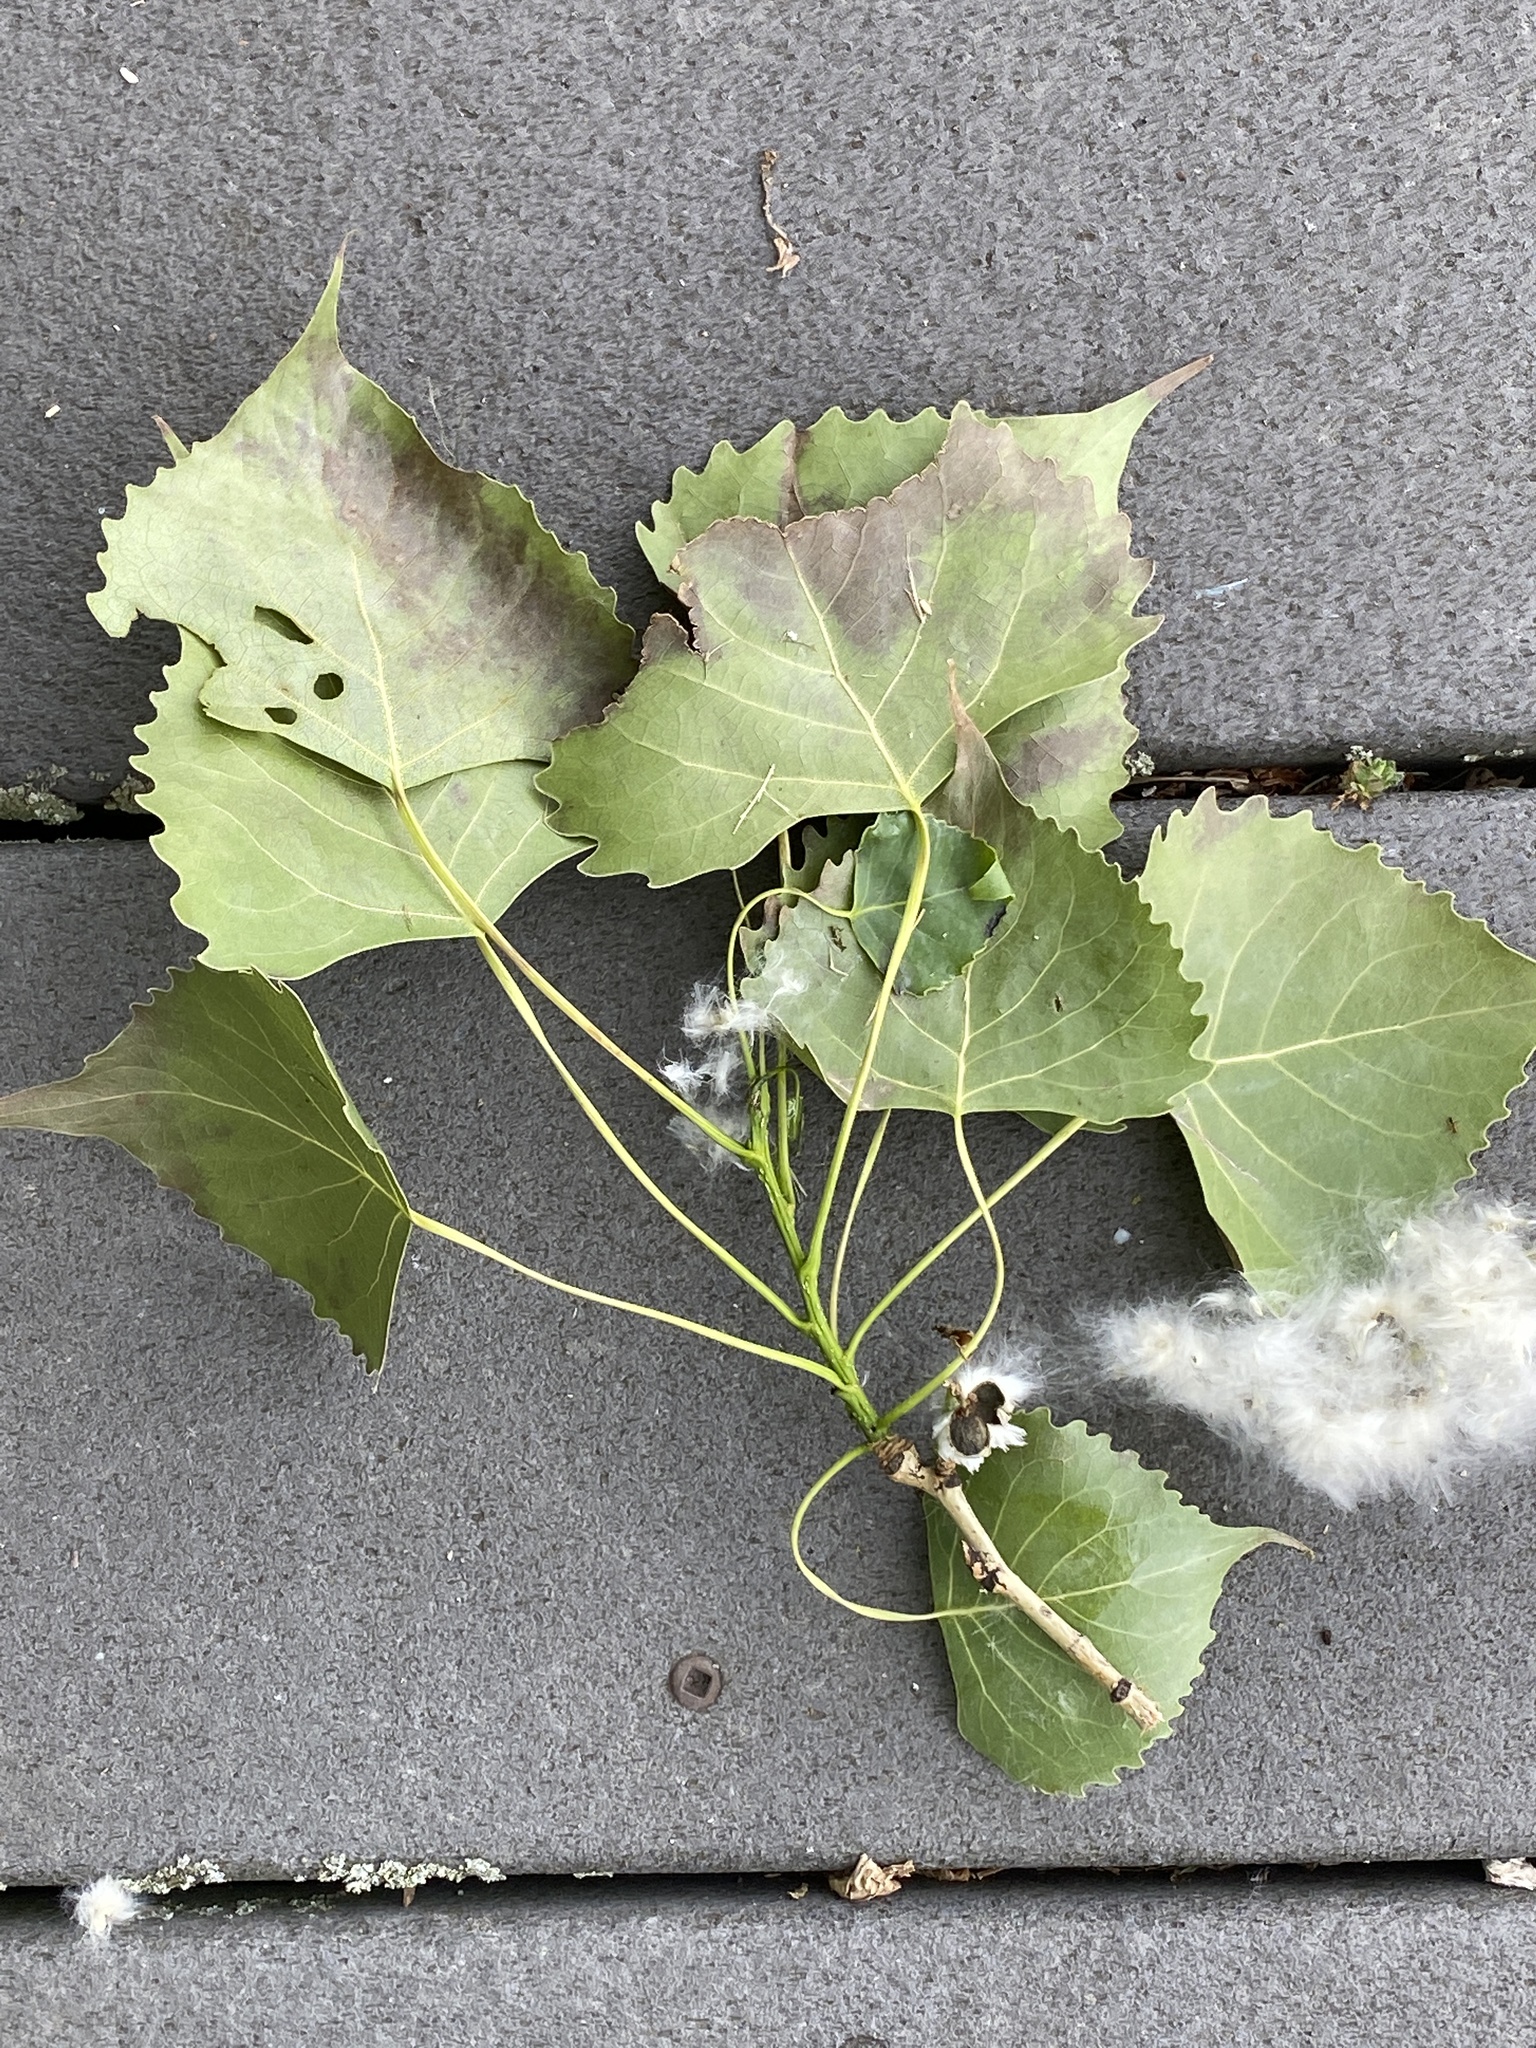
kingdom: Plantae
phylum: Tracheophyta
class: Magnoliopsida
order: Malpighiales
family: Salicaceae
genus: Populus
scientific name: Populus deltoides
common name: Eastern cottonwood
